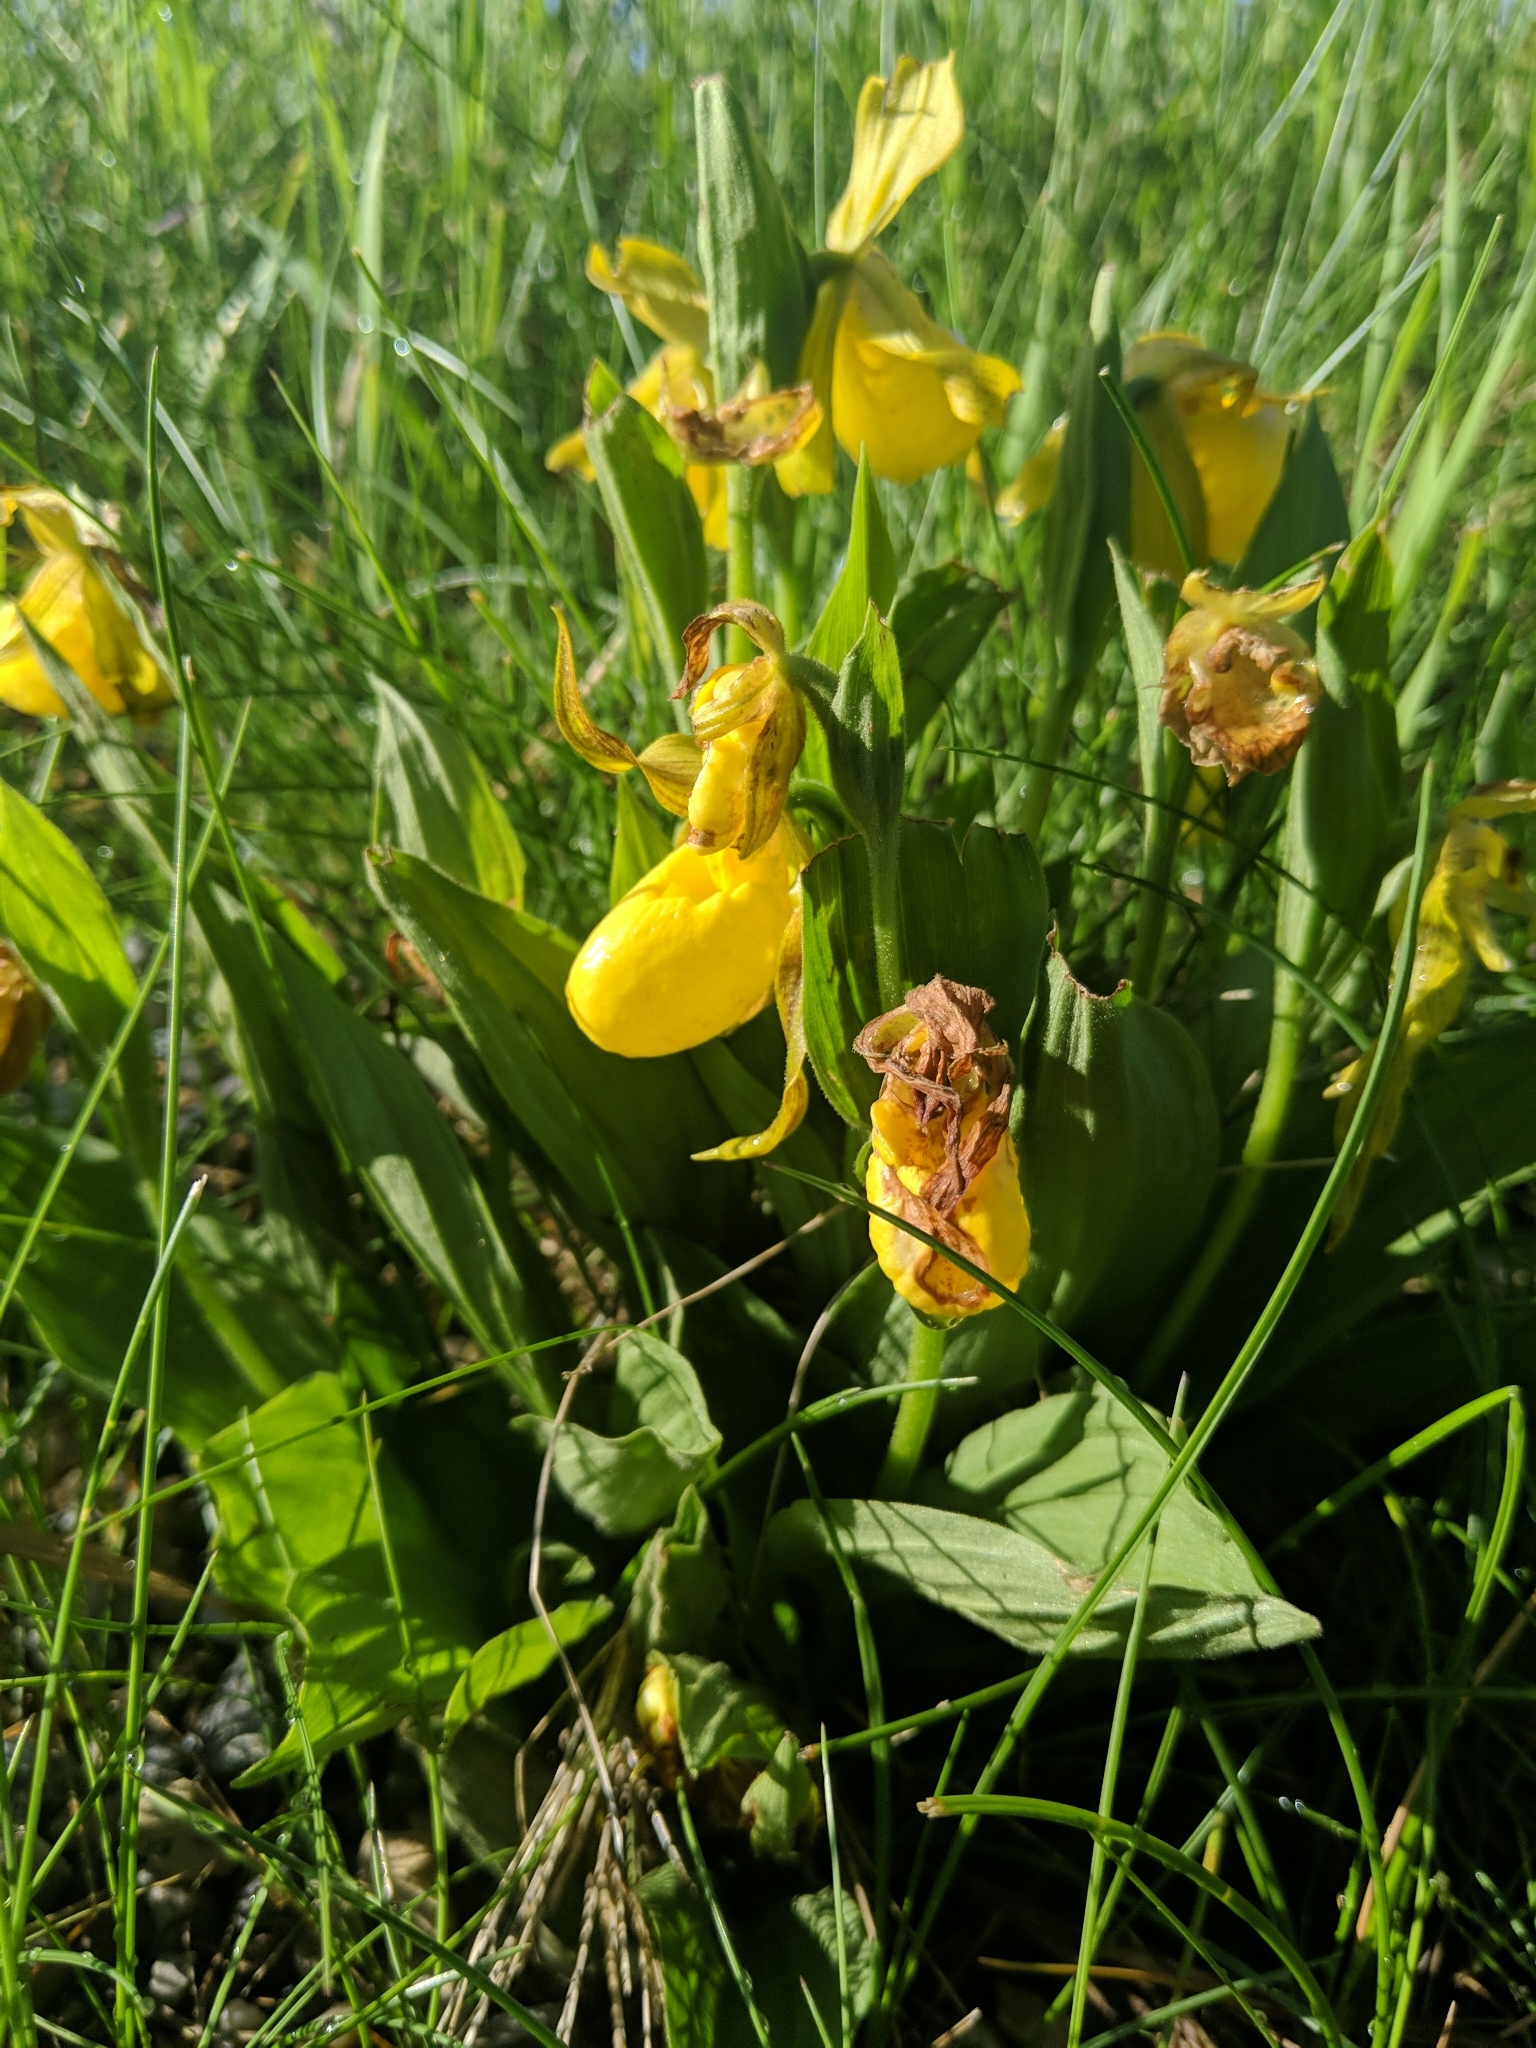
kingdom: Plantae
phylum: Tracheophyta
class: Liliopsida
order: Asparagales
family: Orchidaceae
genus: Cypripedium
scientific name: Cypripedium parviflorum
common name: American yellow lady's-slipper
